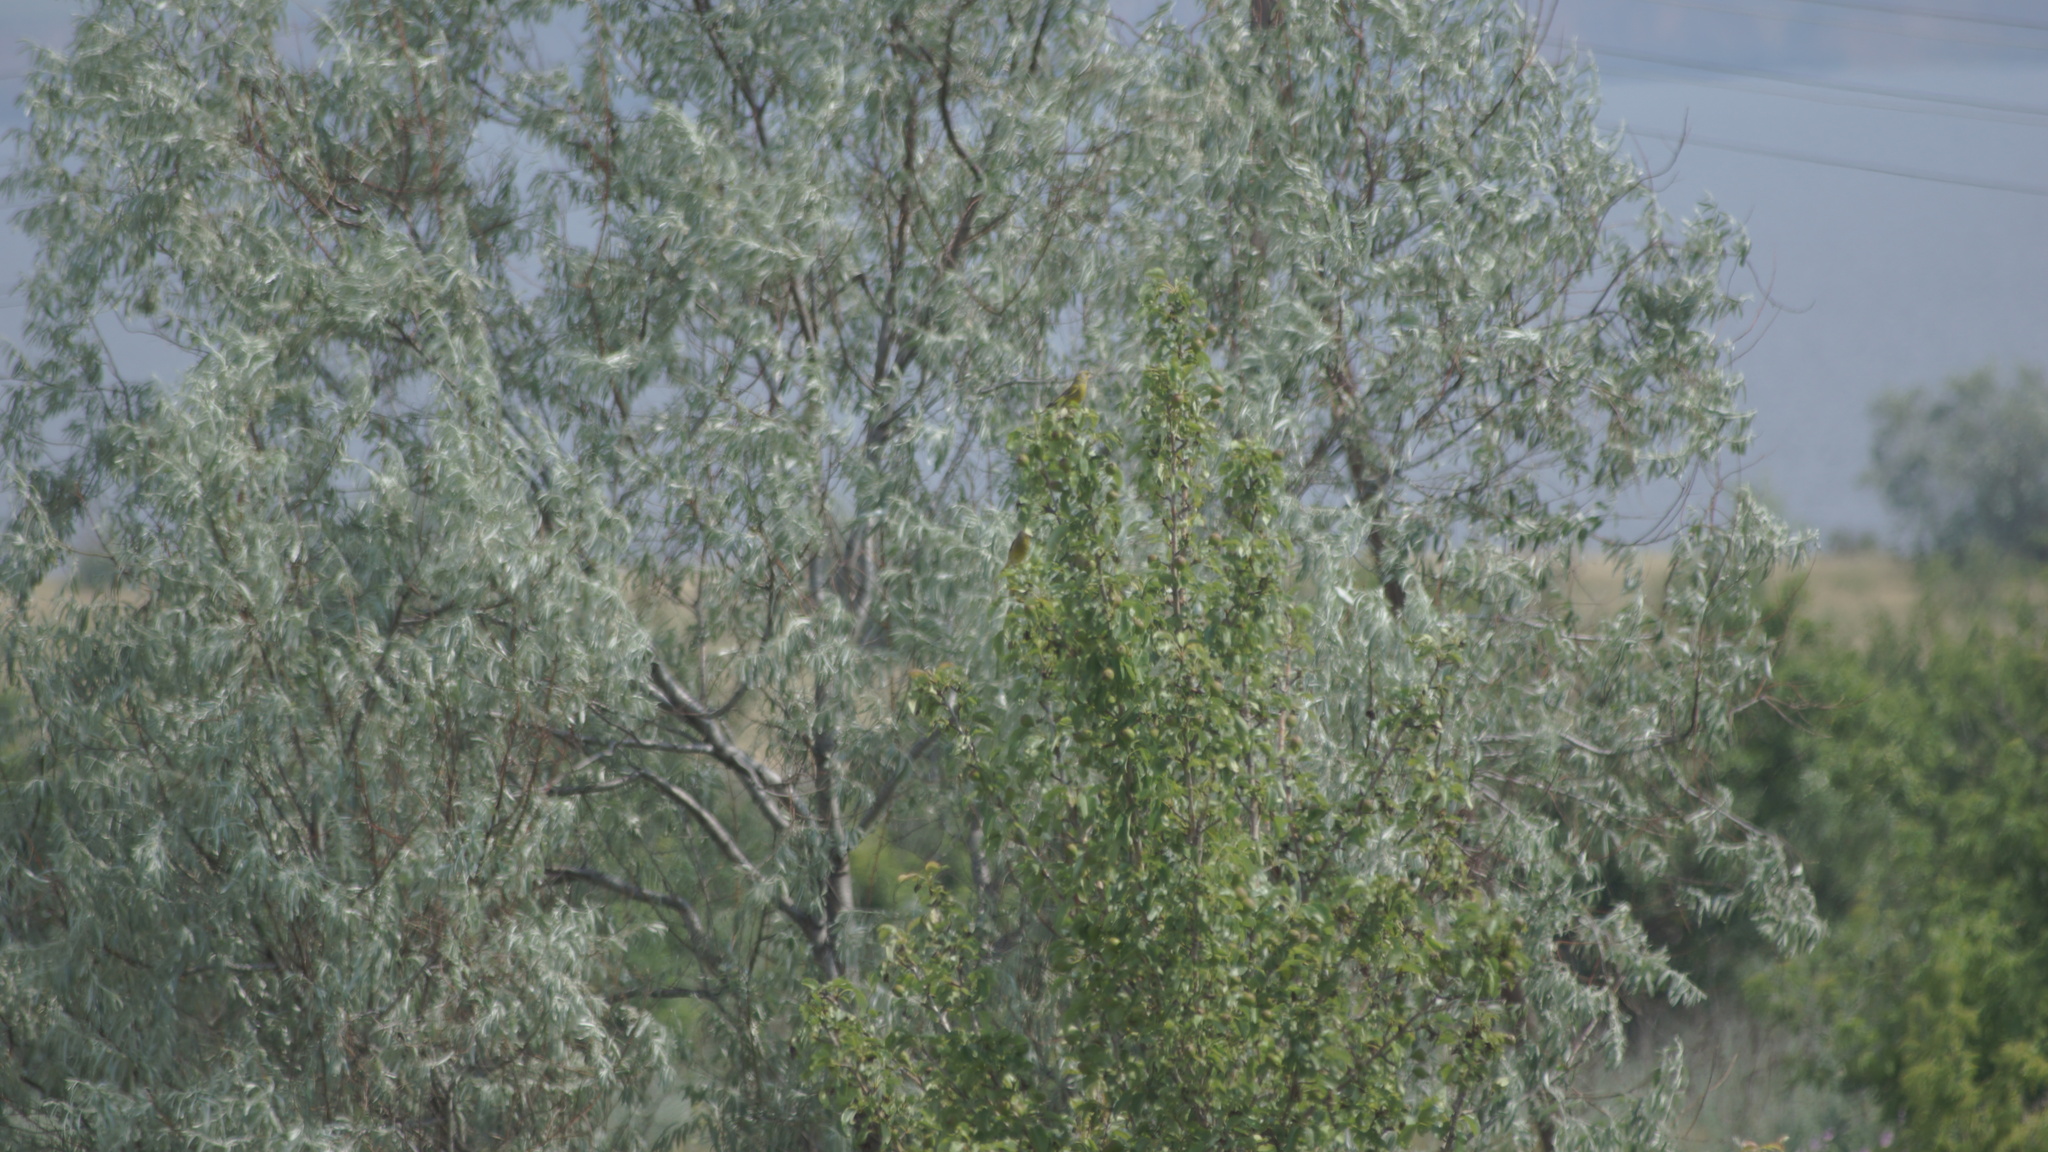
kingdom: Plantae
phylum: Tracheophyta
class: Liliopsida
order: Poales
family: Poaceae
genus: Chloris
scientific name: Chloris chloris
